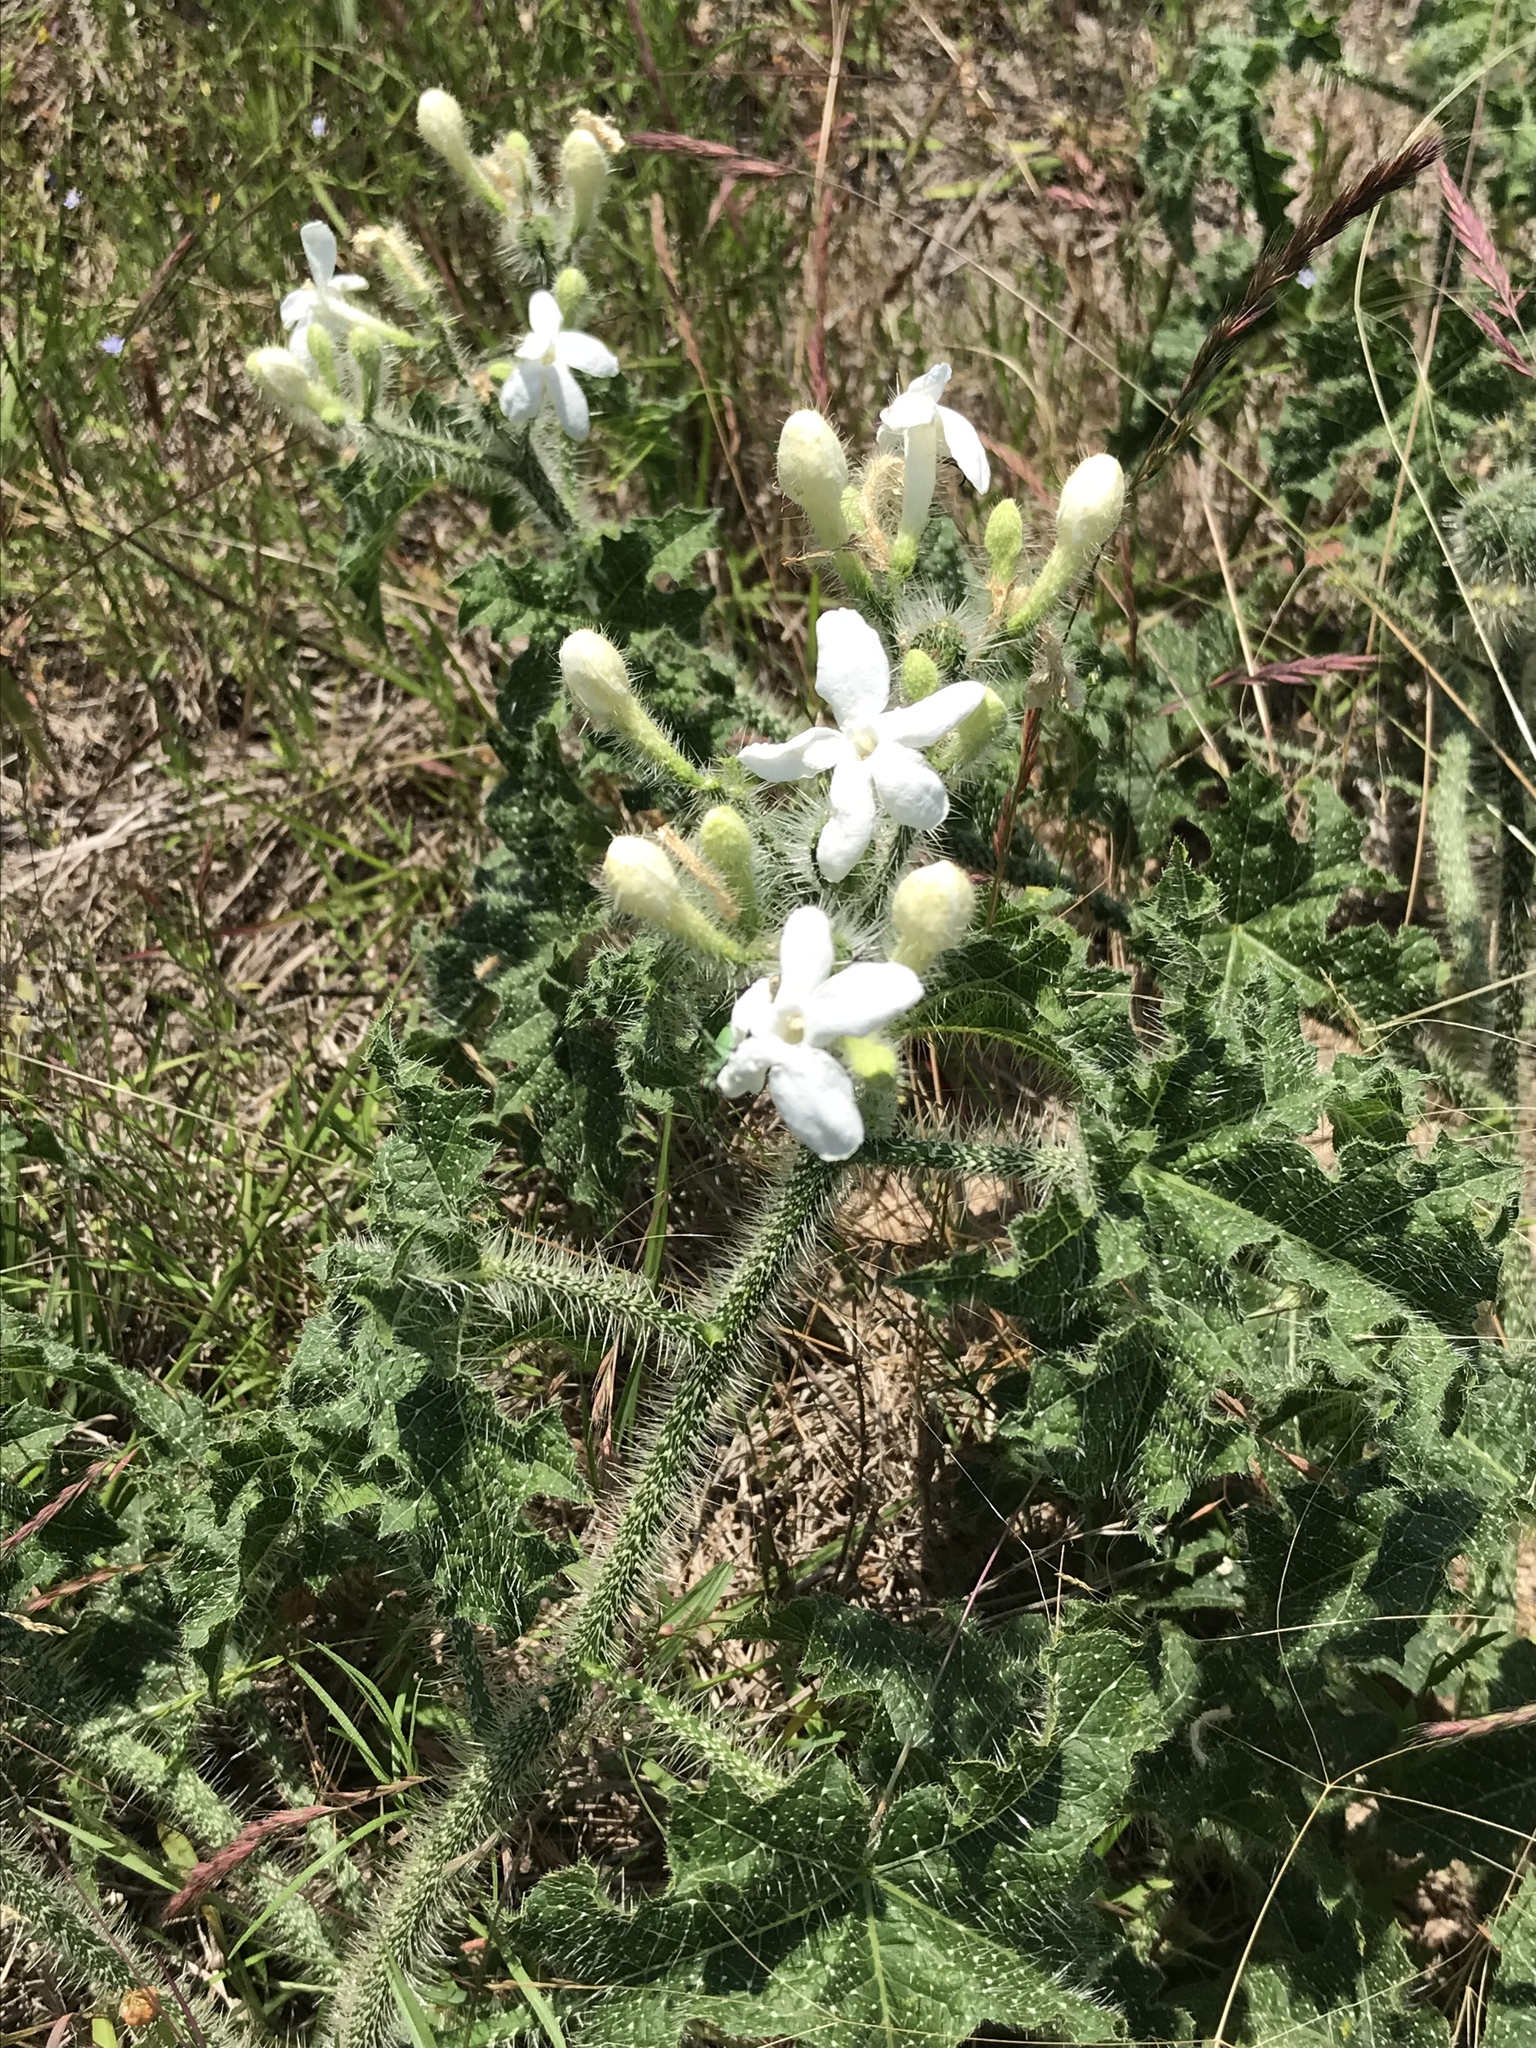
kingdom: Plantae
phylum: Tracheophyta
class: Magnoliopsida
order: Malpighiales
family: Euphorbiaceae
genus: Cnidoscolus
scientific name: Cnidoscolus texanus
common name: Texas bull-nettle
